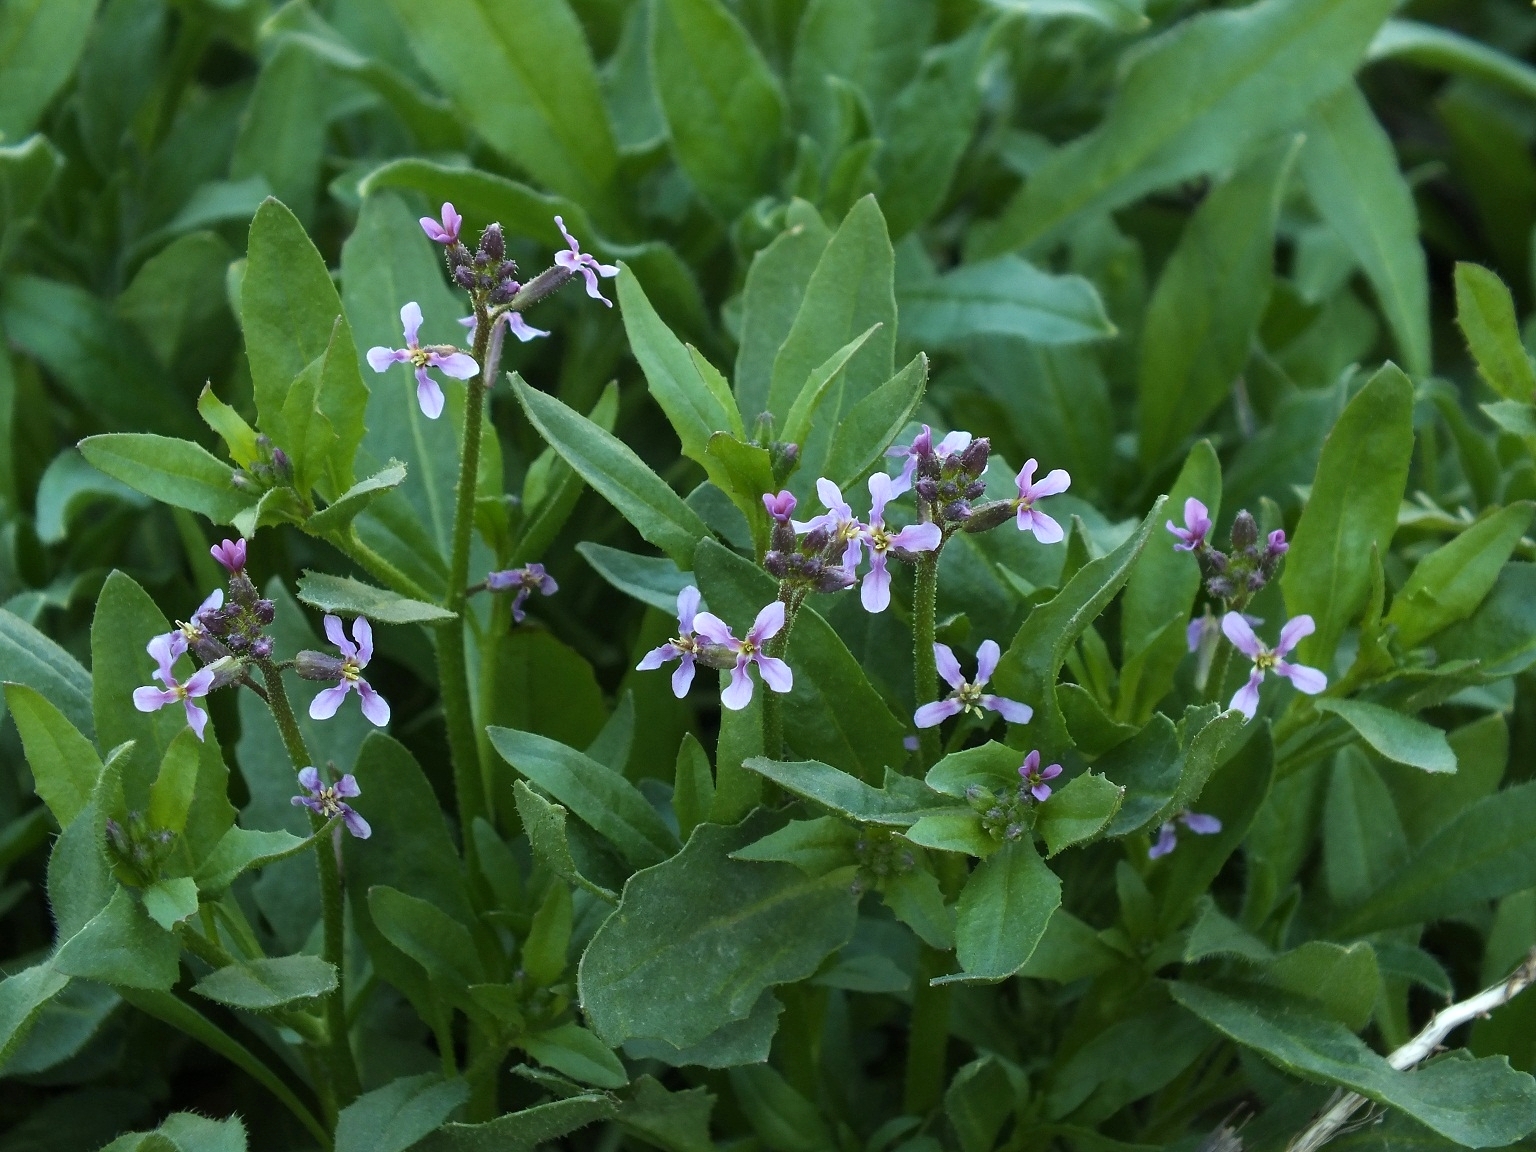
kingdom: Plantae
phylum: Tracheophyta
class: Magnoliopsida
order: Brassicales
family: Brassicaceae
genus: Chorispora
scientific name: Chorispora tenella
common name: Crossflower
